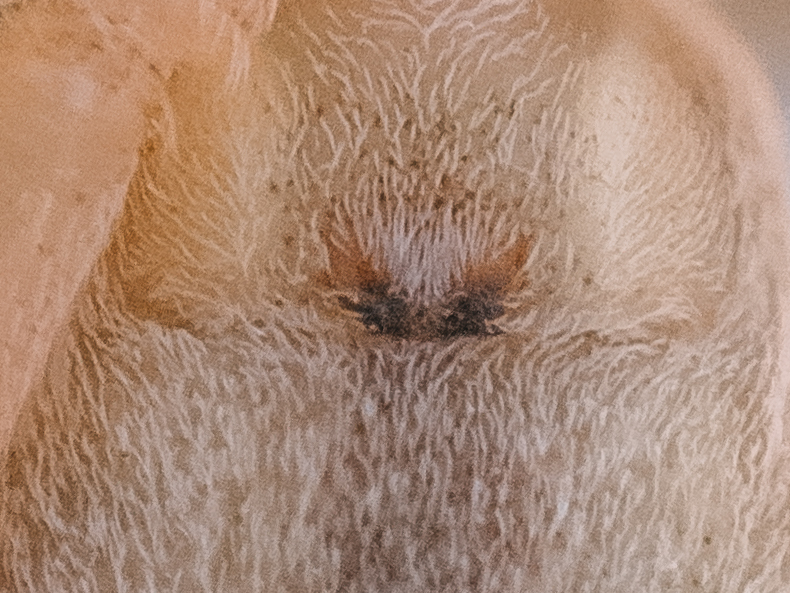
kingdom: Animalia
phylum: Arthropoda
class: Arachnida
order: Araneae
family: Philodromidae
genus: Tibellus
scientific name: Tibellus oblongus
